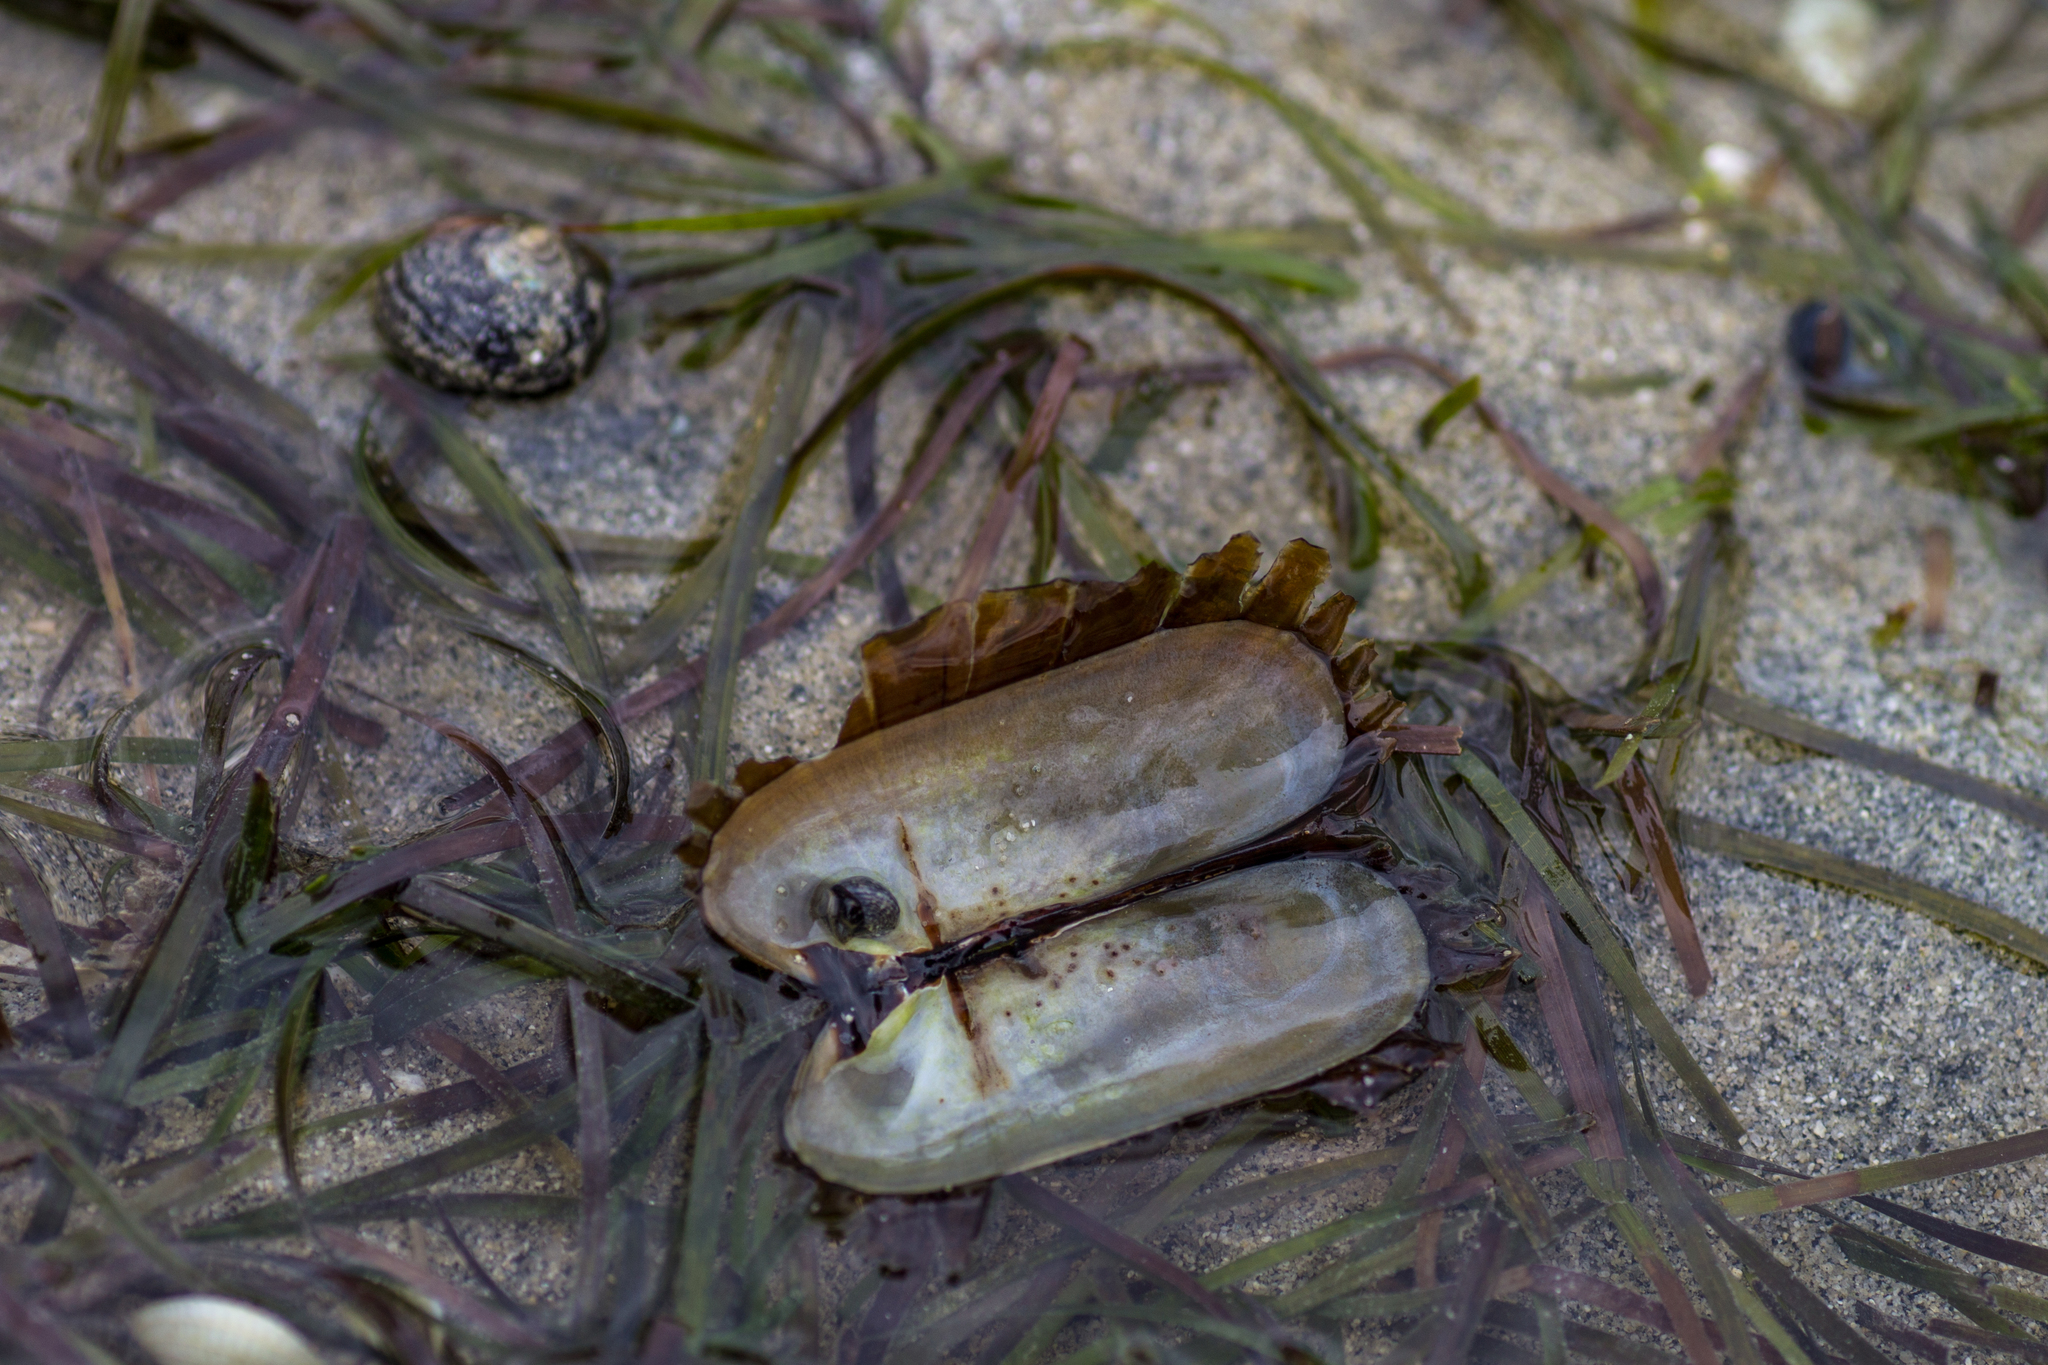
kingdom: Animalia
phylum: Mollusca
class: Bivalvia
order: Solemyida
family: Solemyidae
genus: Solemya
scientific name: Solemya parkinsonii
